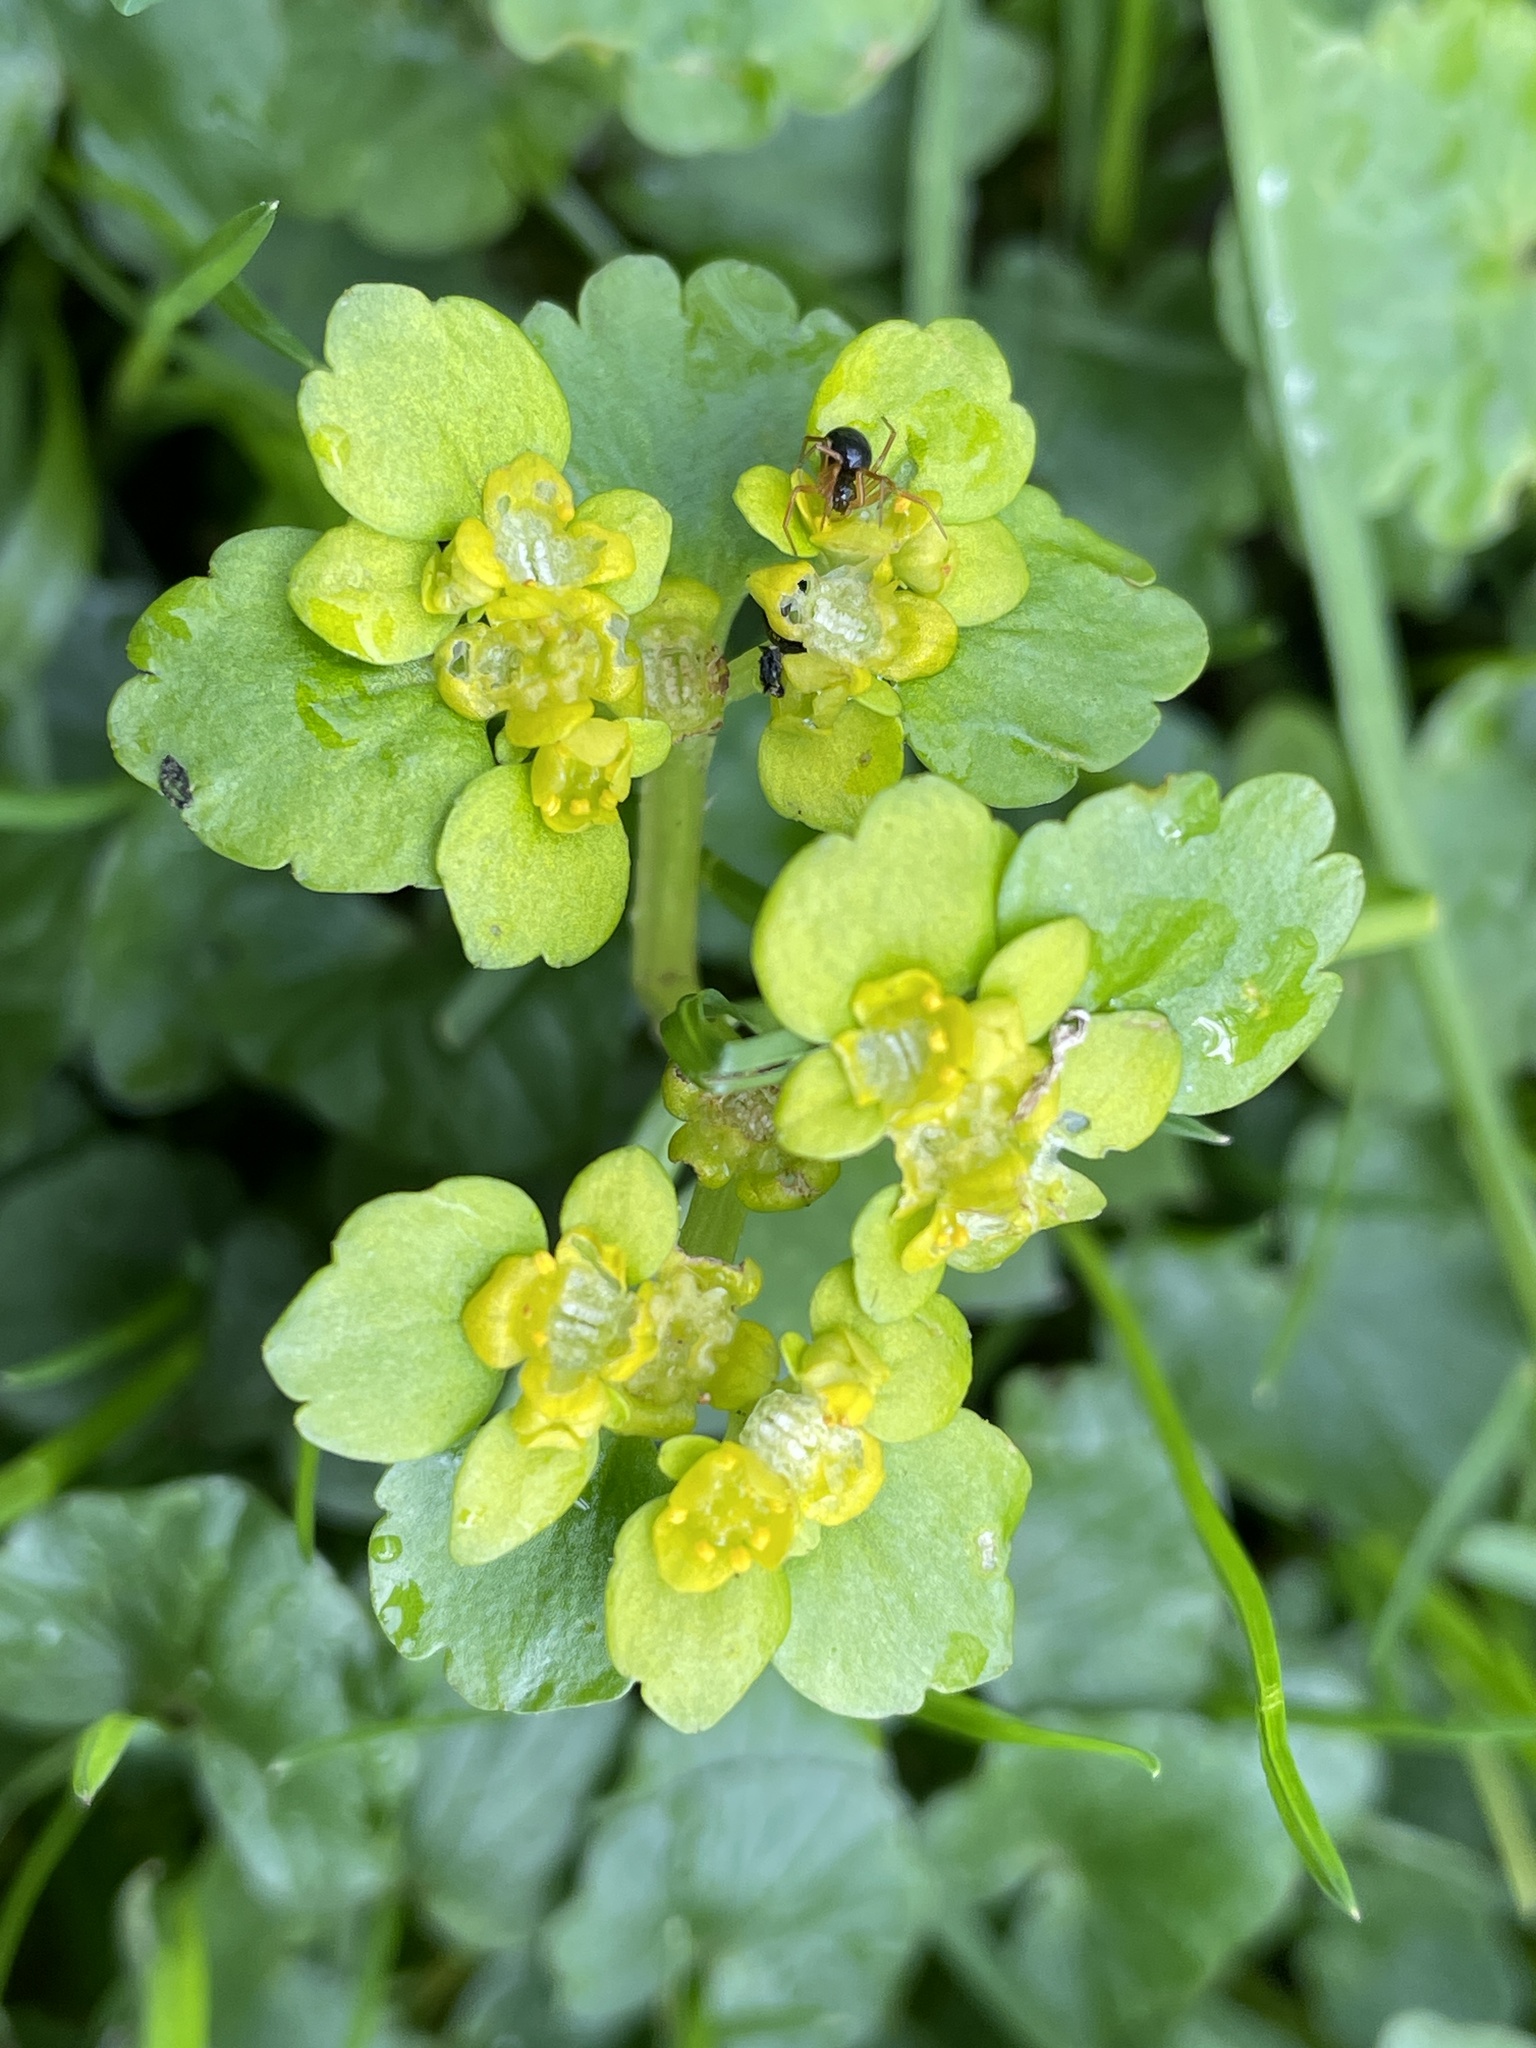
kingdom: Plantae
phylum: Tracheophyta
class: Magnoliopsida
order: Saxifragales
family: Saxifragaceae
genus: Chrysosplenium
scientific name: Chrysosplenium alternifolium
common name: Alternate-leaved golden-saxifrage
